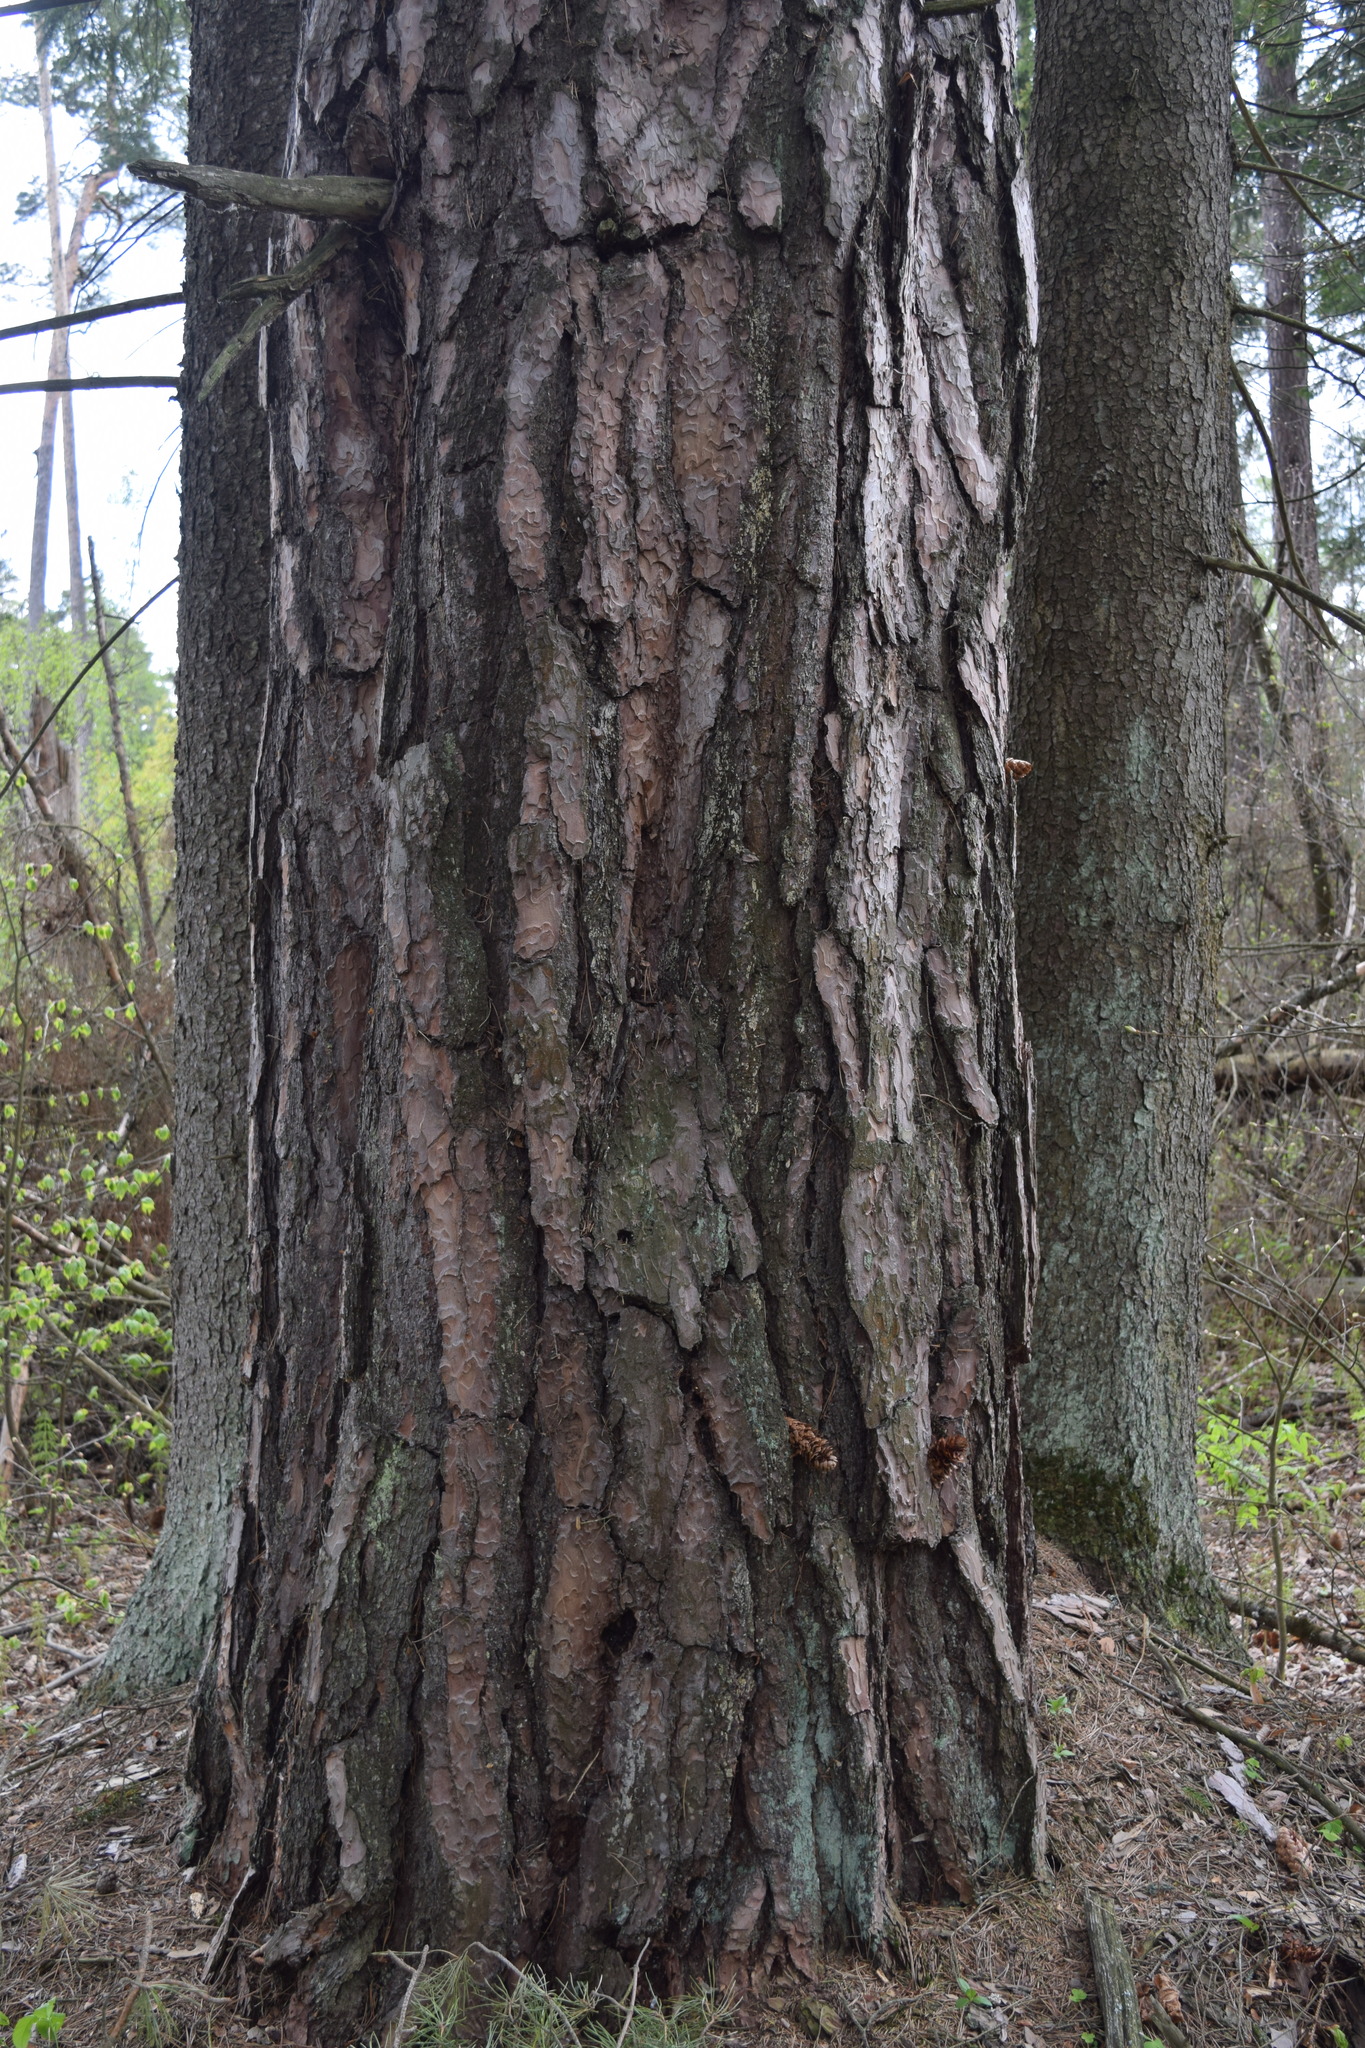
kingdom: Plantae
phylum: Tracheophyta
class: Pinopsida
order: Pinales
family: Pinaceae
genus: Pinus
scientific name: Pinus sylvestris
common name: Scots pine
